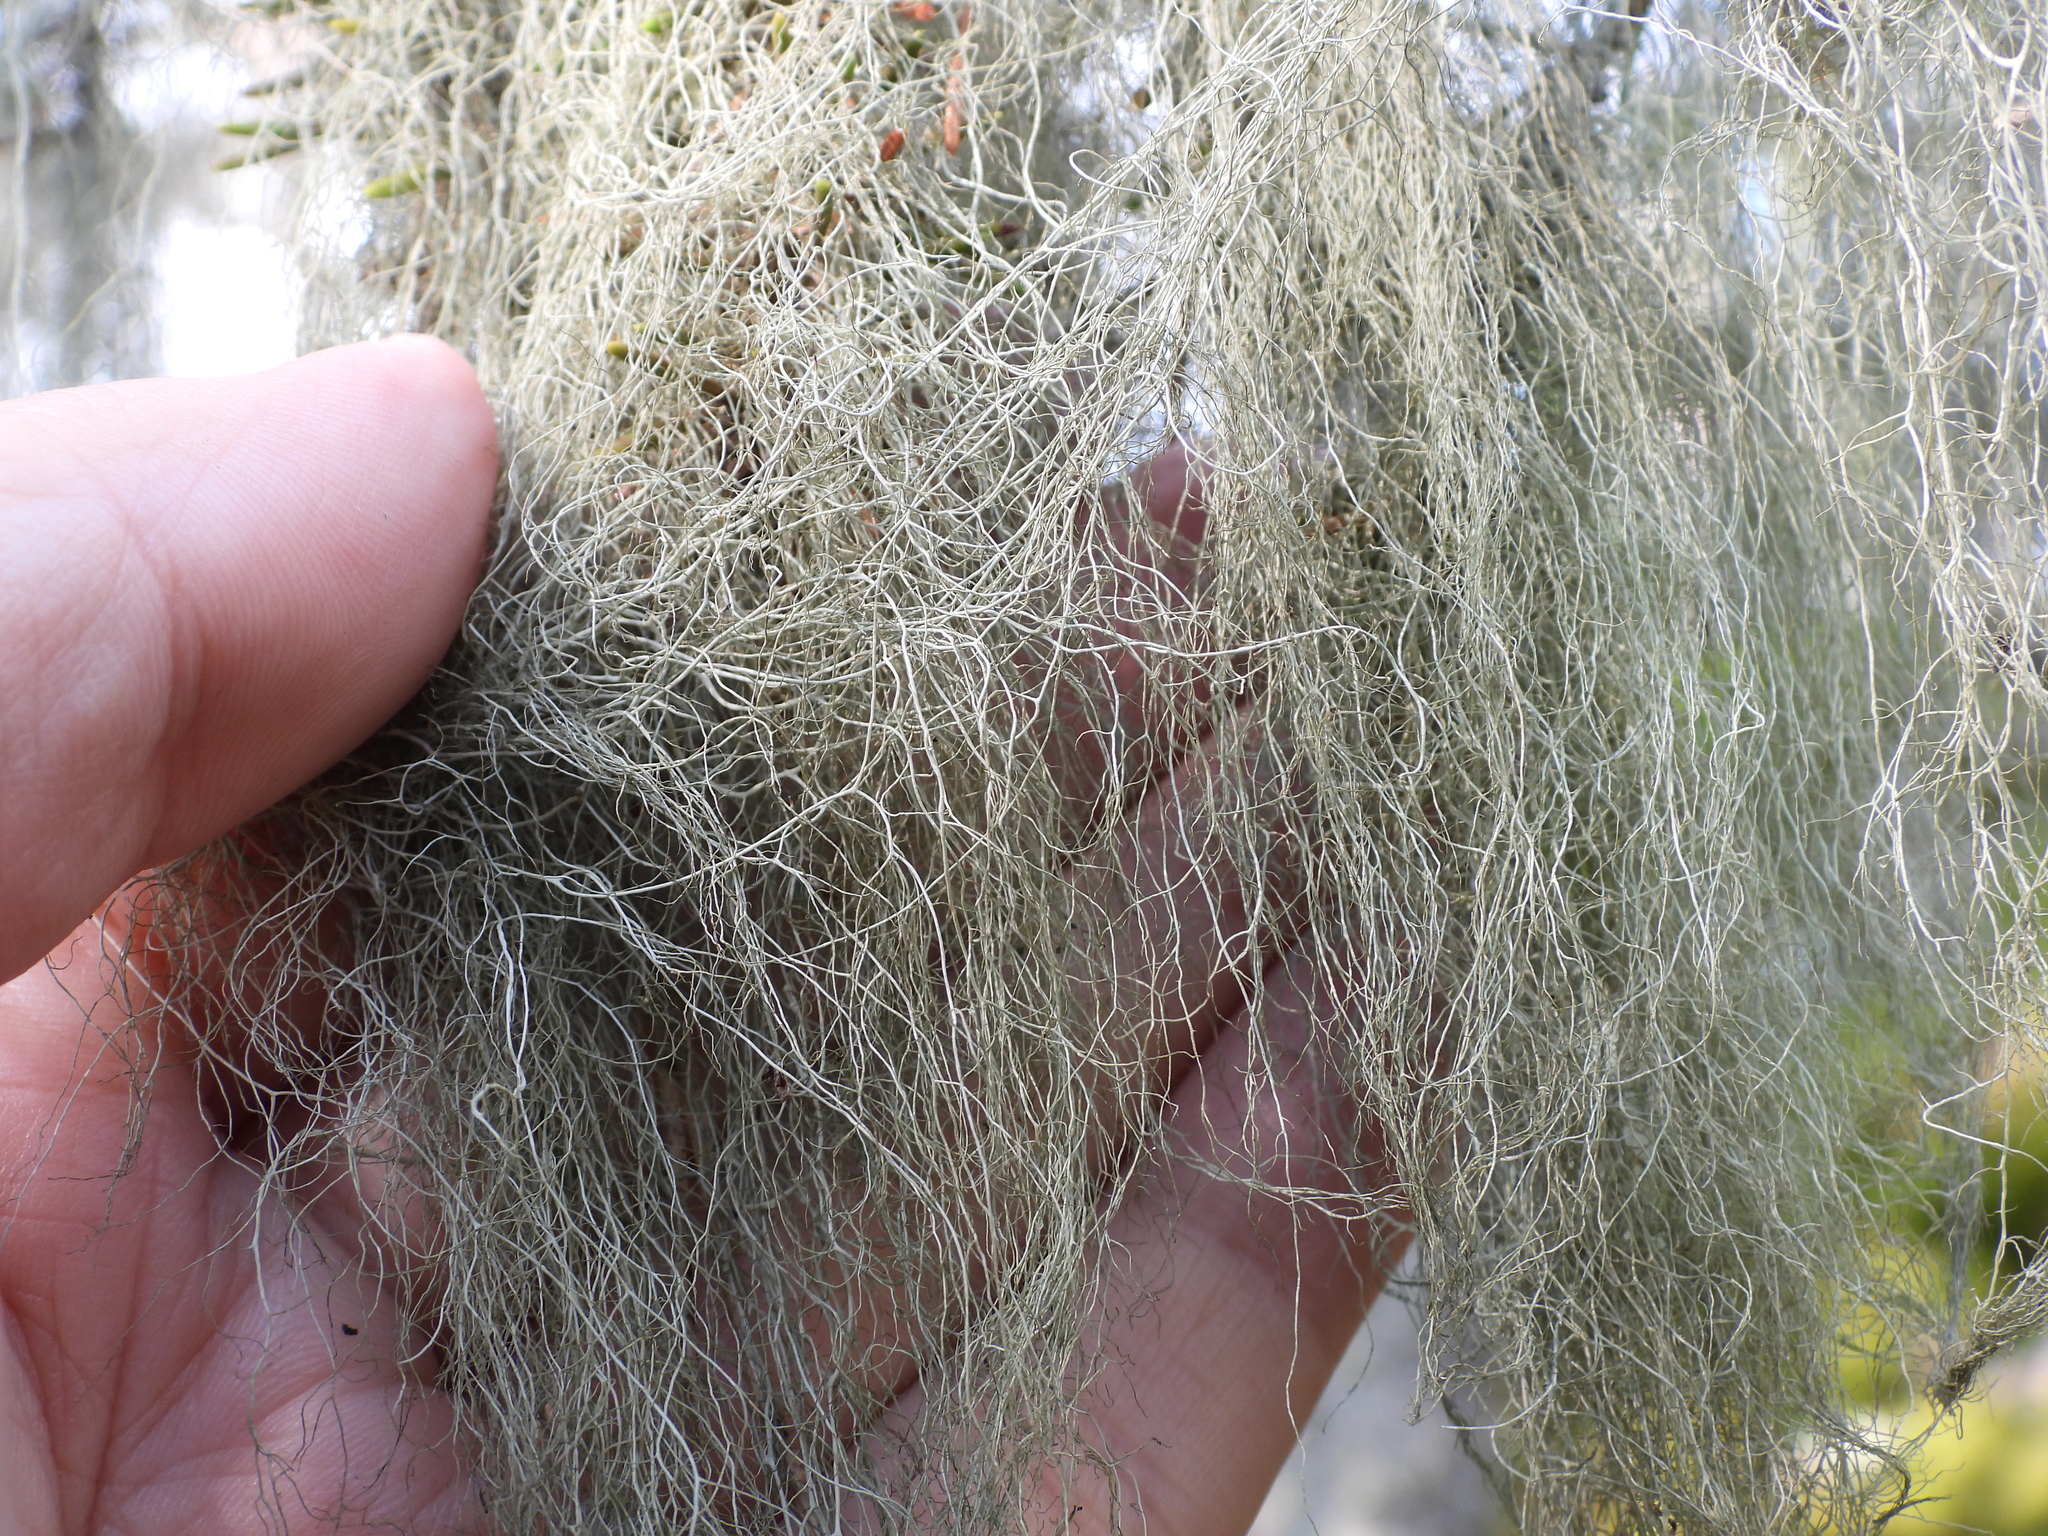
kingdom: Fungi
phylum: Ascomycota
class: Lecanoromycetes
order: Lecanorales
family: Parmeliaceae
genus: Bryoria
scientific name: Bryoria fuscescens
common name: Pale-footed horsehair lichen
